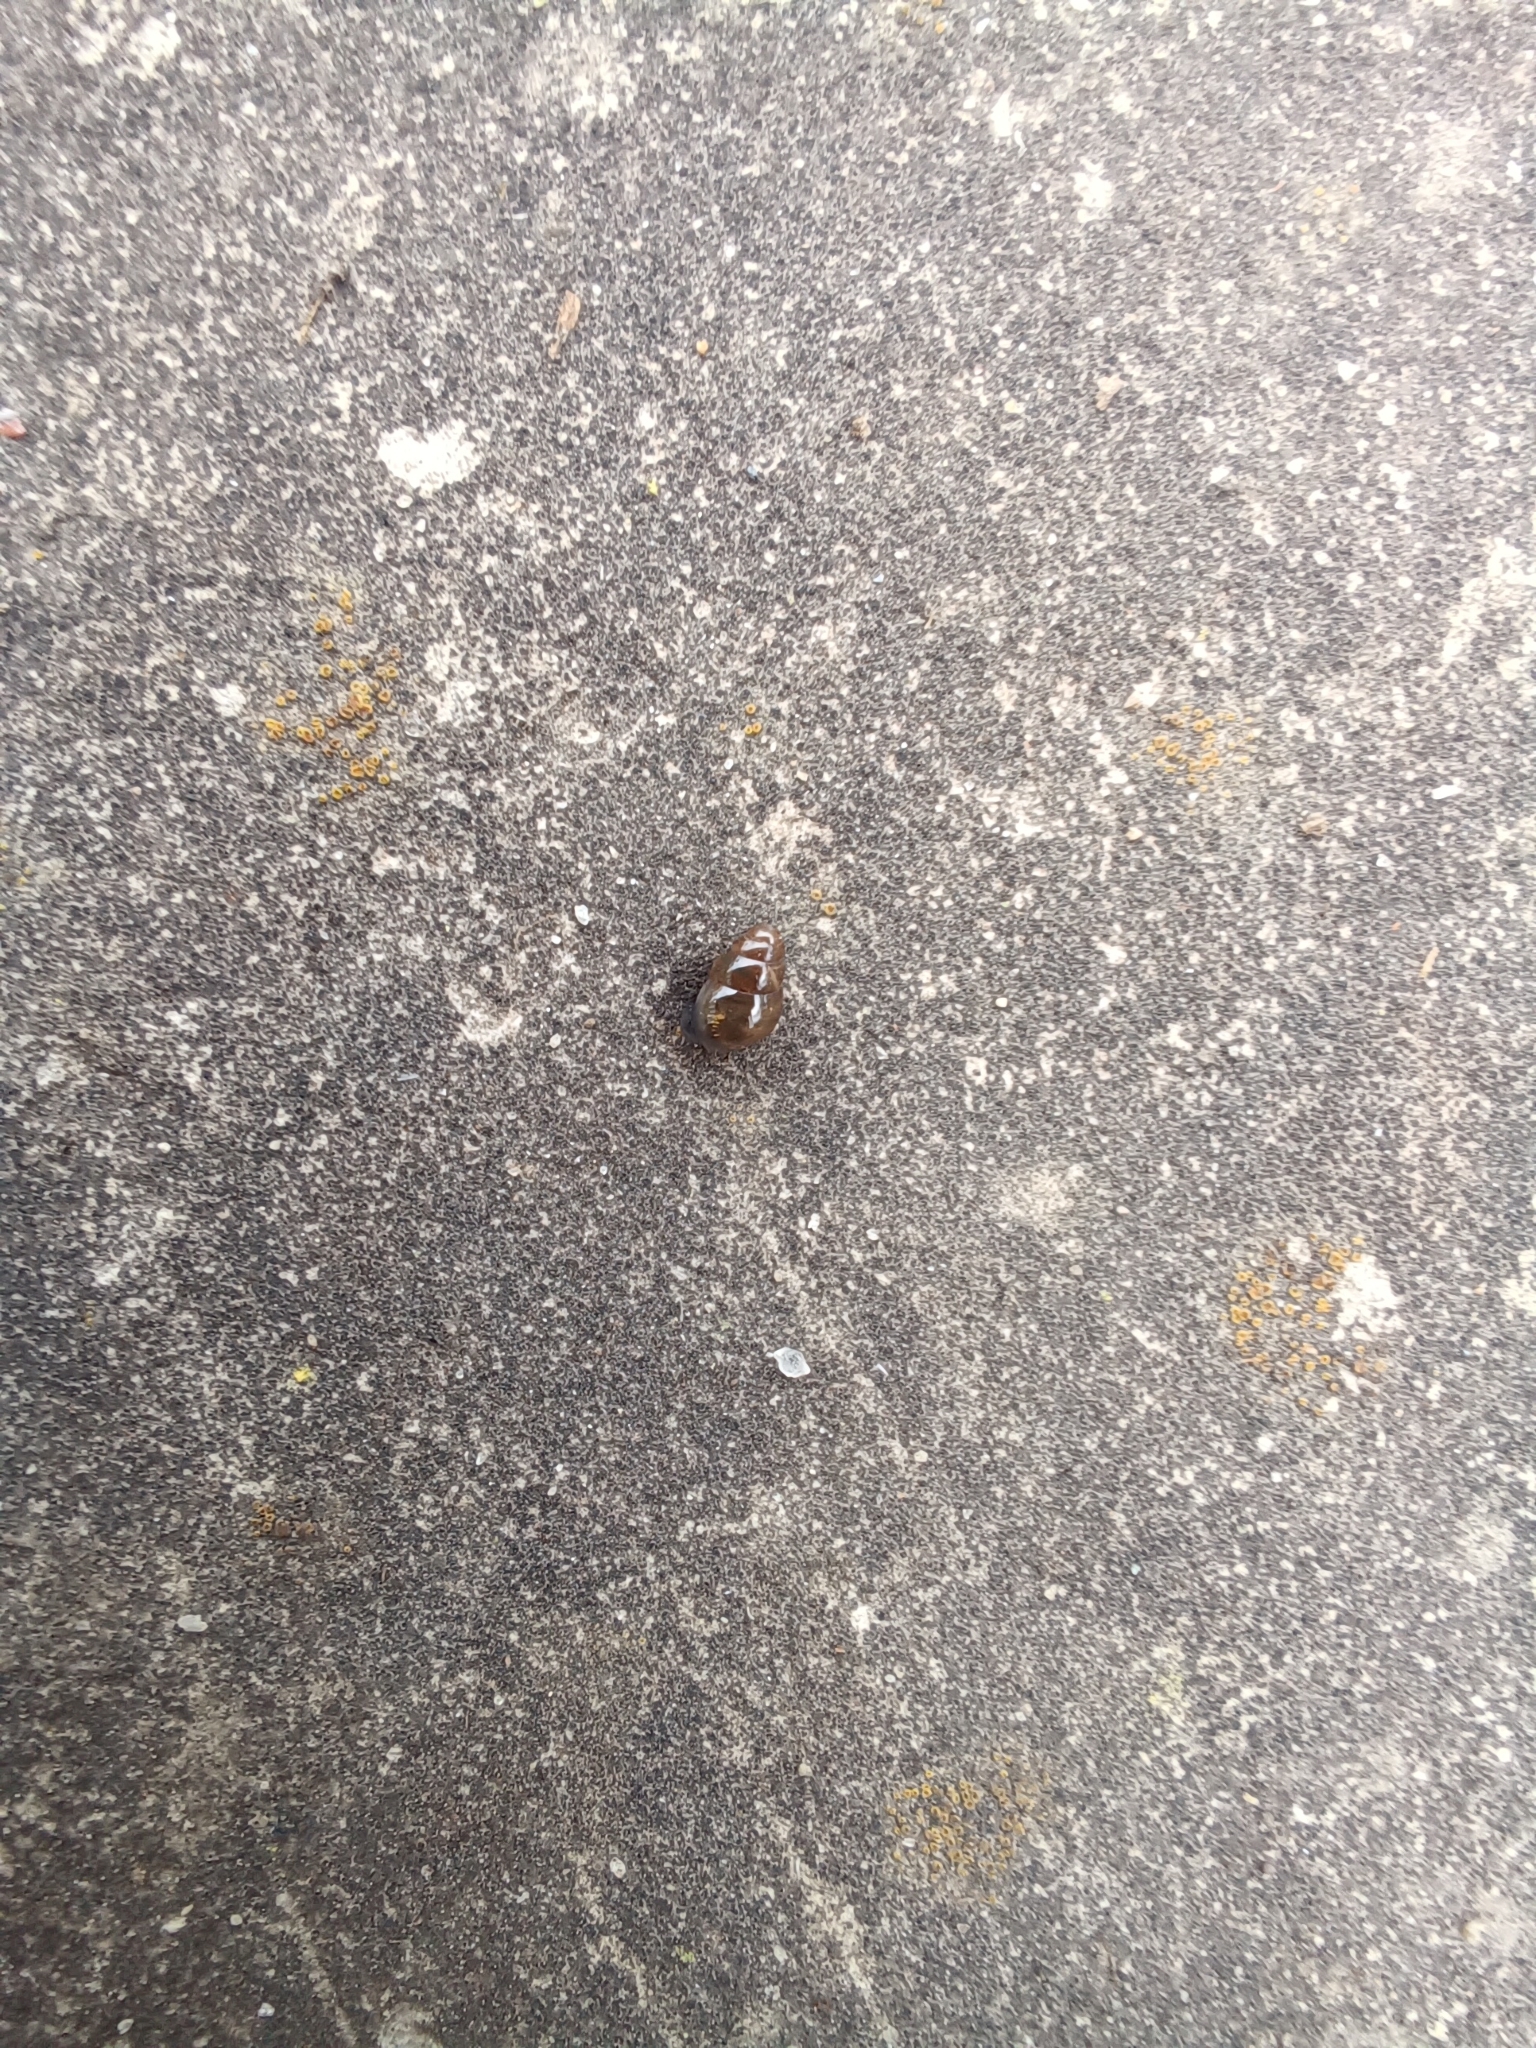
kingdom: Animalia
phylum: Mollusca
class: Gastropoda
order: Stylommatophora
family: Cochlicopidae
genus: Cochlicopa
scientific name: Cochlicopa lubrica
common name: Glossy pillar snail
